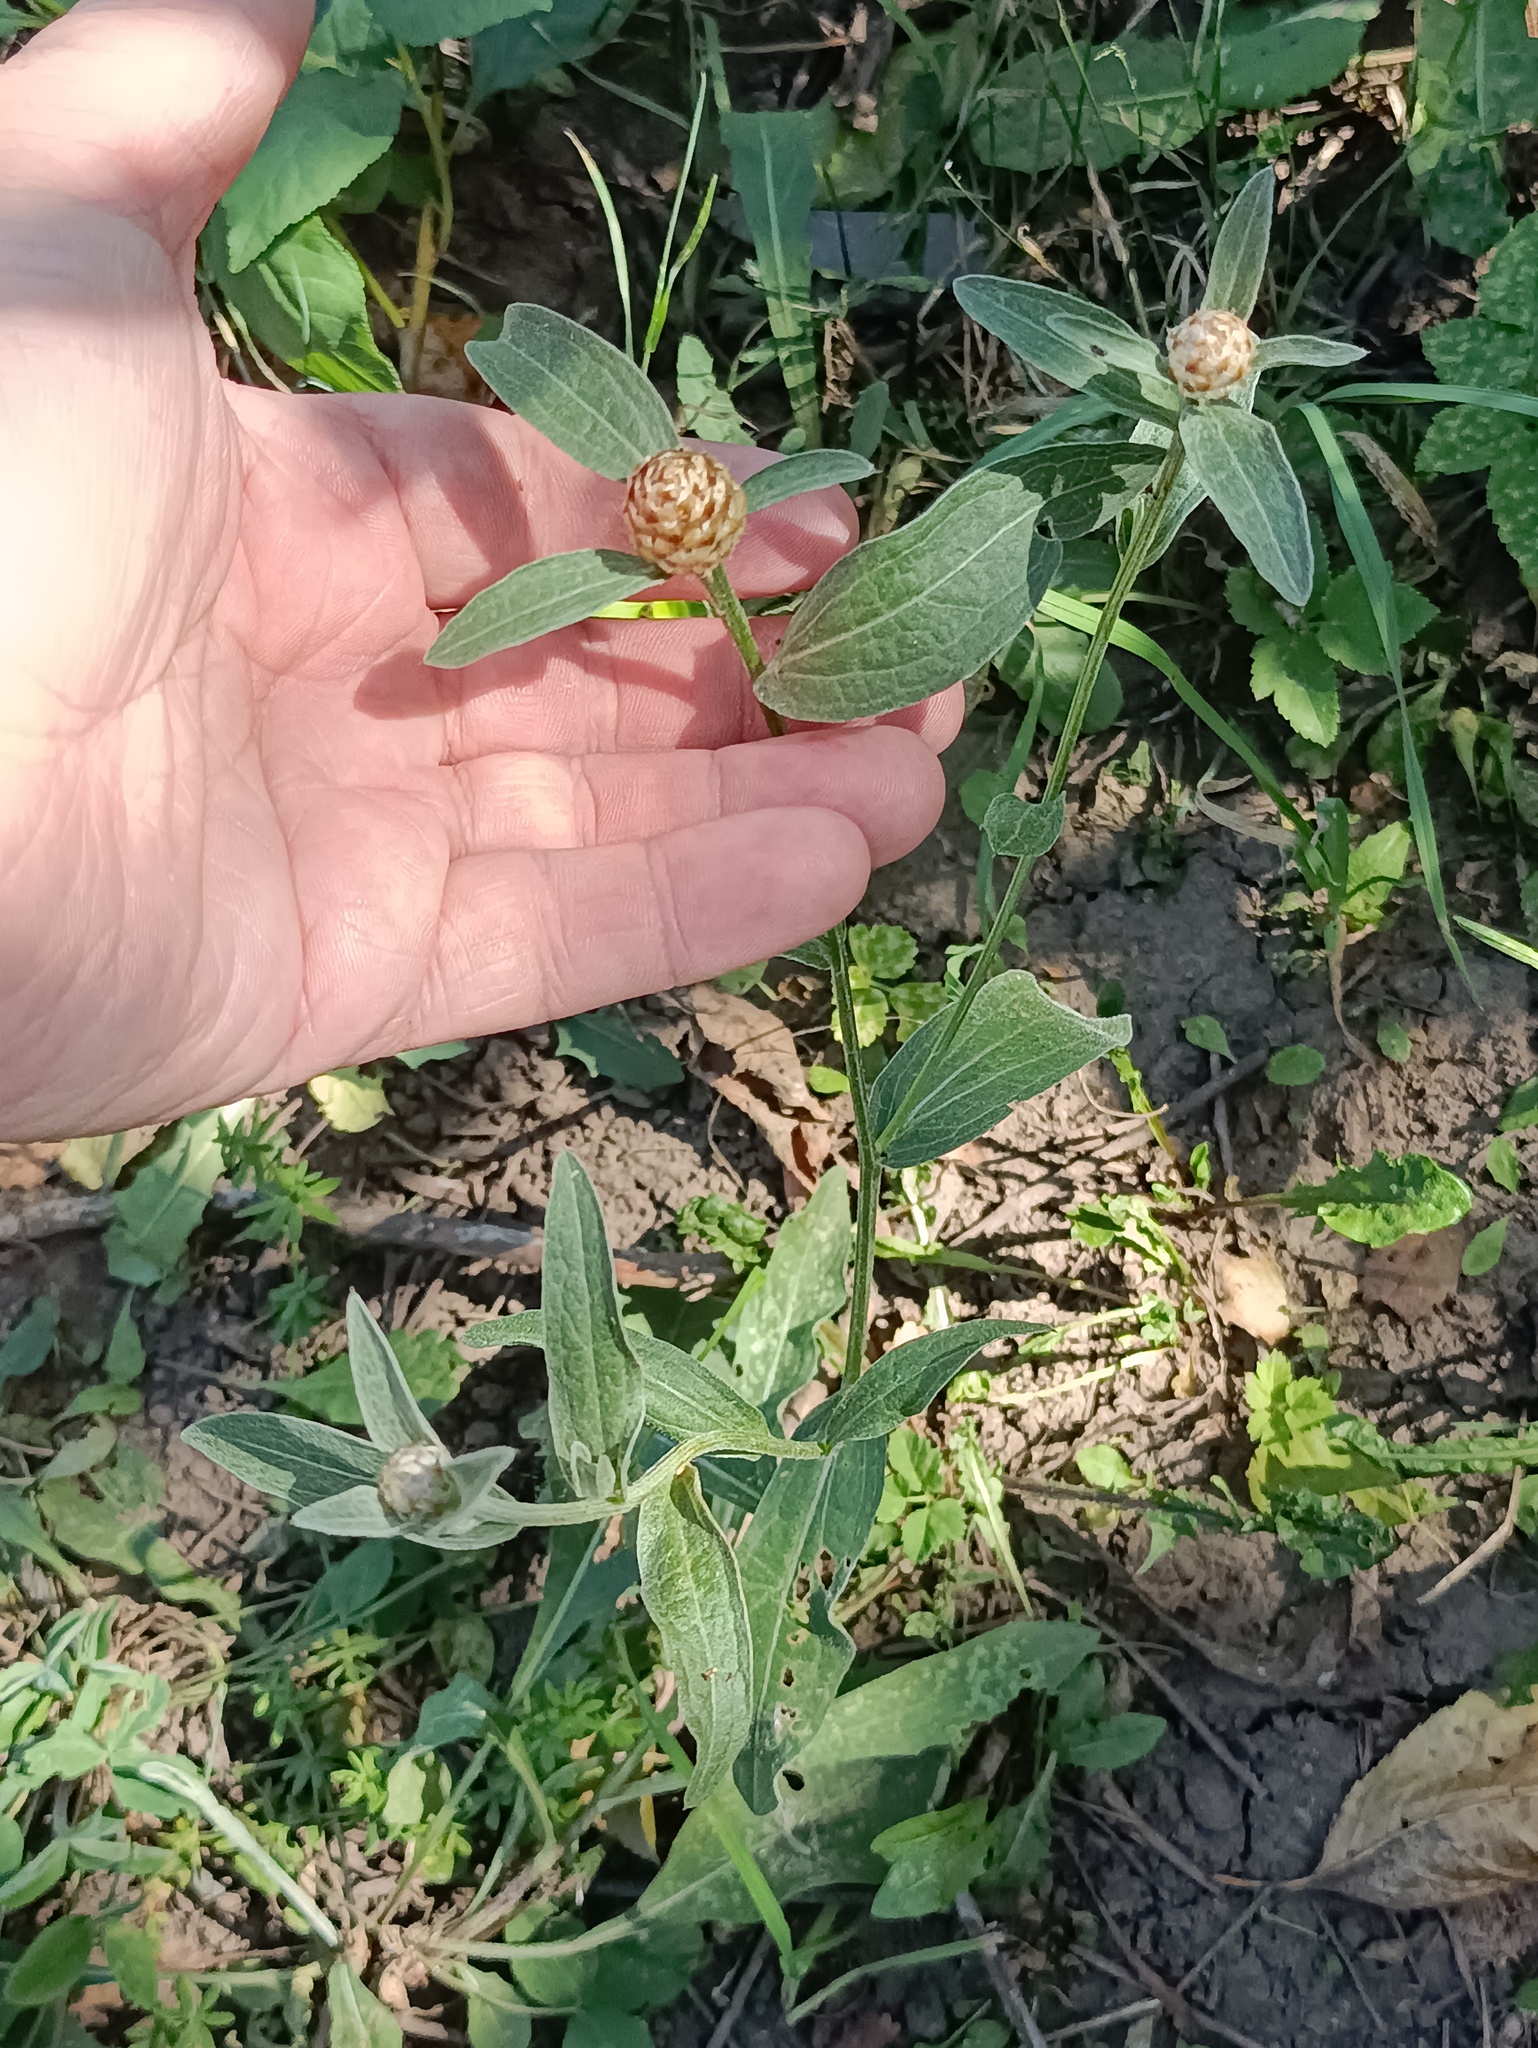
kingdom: Plantae
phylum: Tracheophyta
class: Magnoliopsida
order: Asterales
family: Asteraceae
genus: Centaurea
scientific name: Centaurea jacea
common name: Brown knapweed
